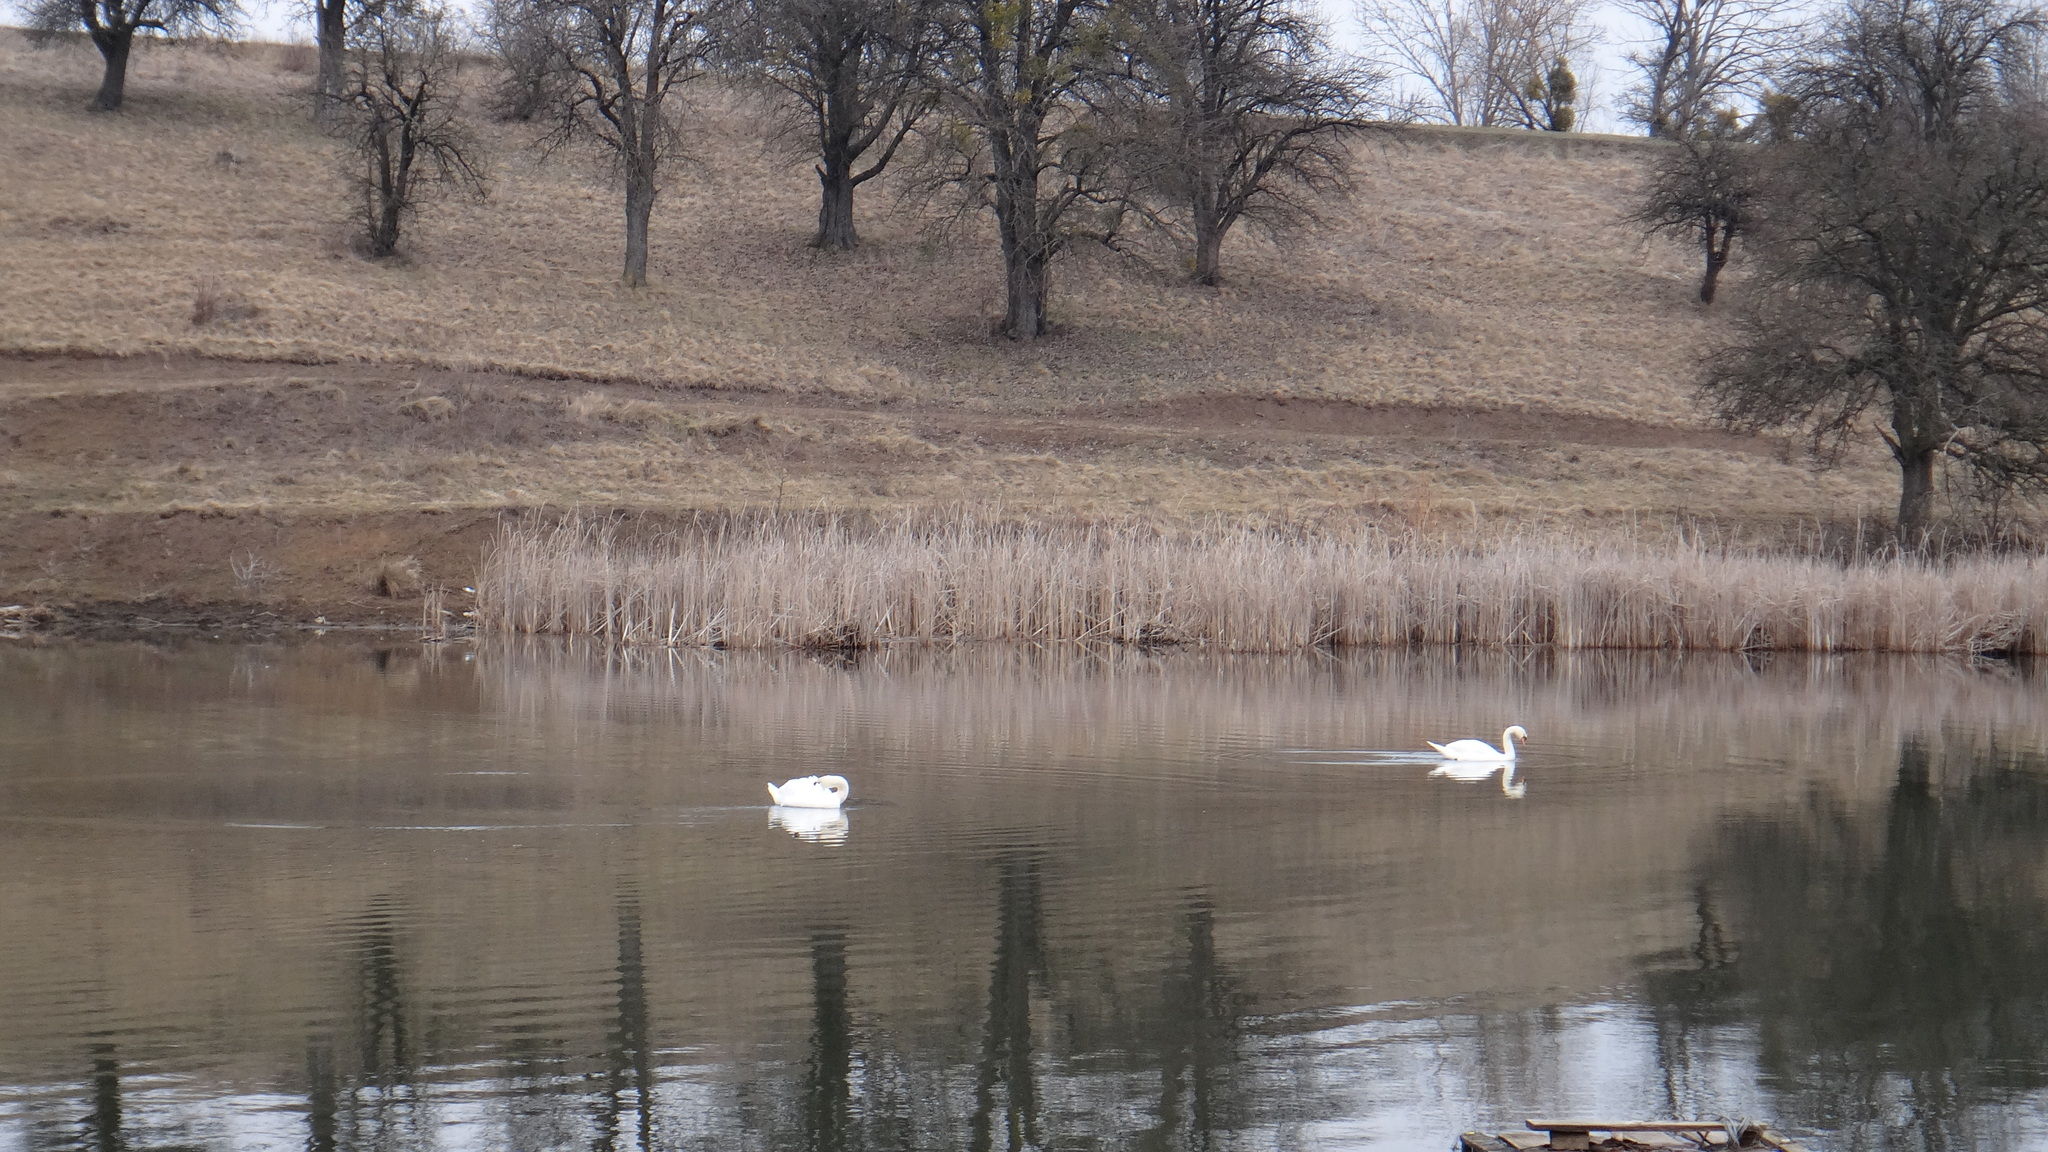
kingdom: Animalia
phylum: Chordata
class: Aves
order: Anseriformes
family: Anatidae
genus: Cygnus
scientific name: Cygnus olor
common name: Mute swan
